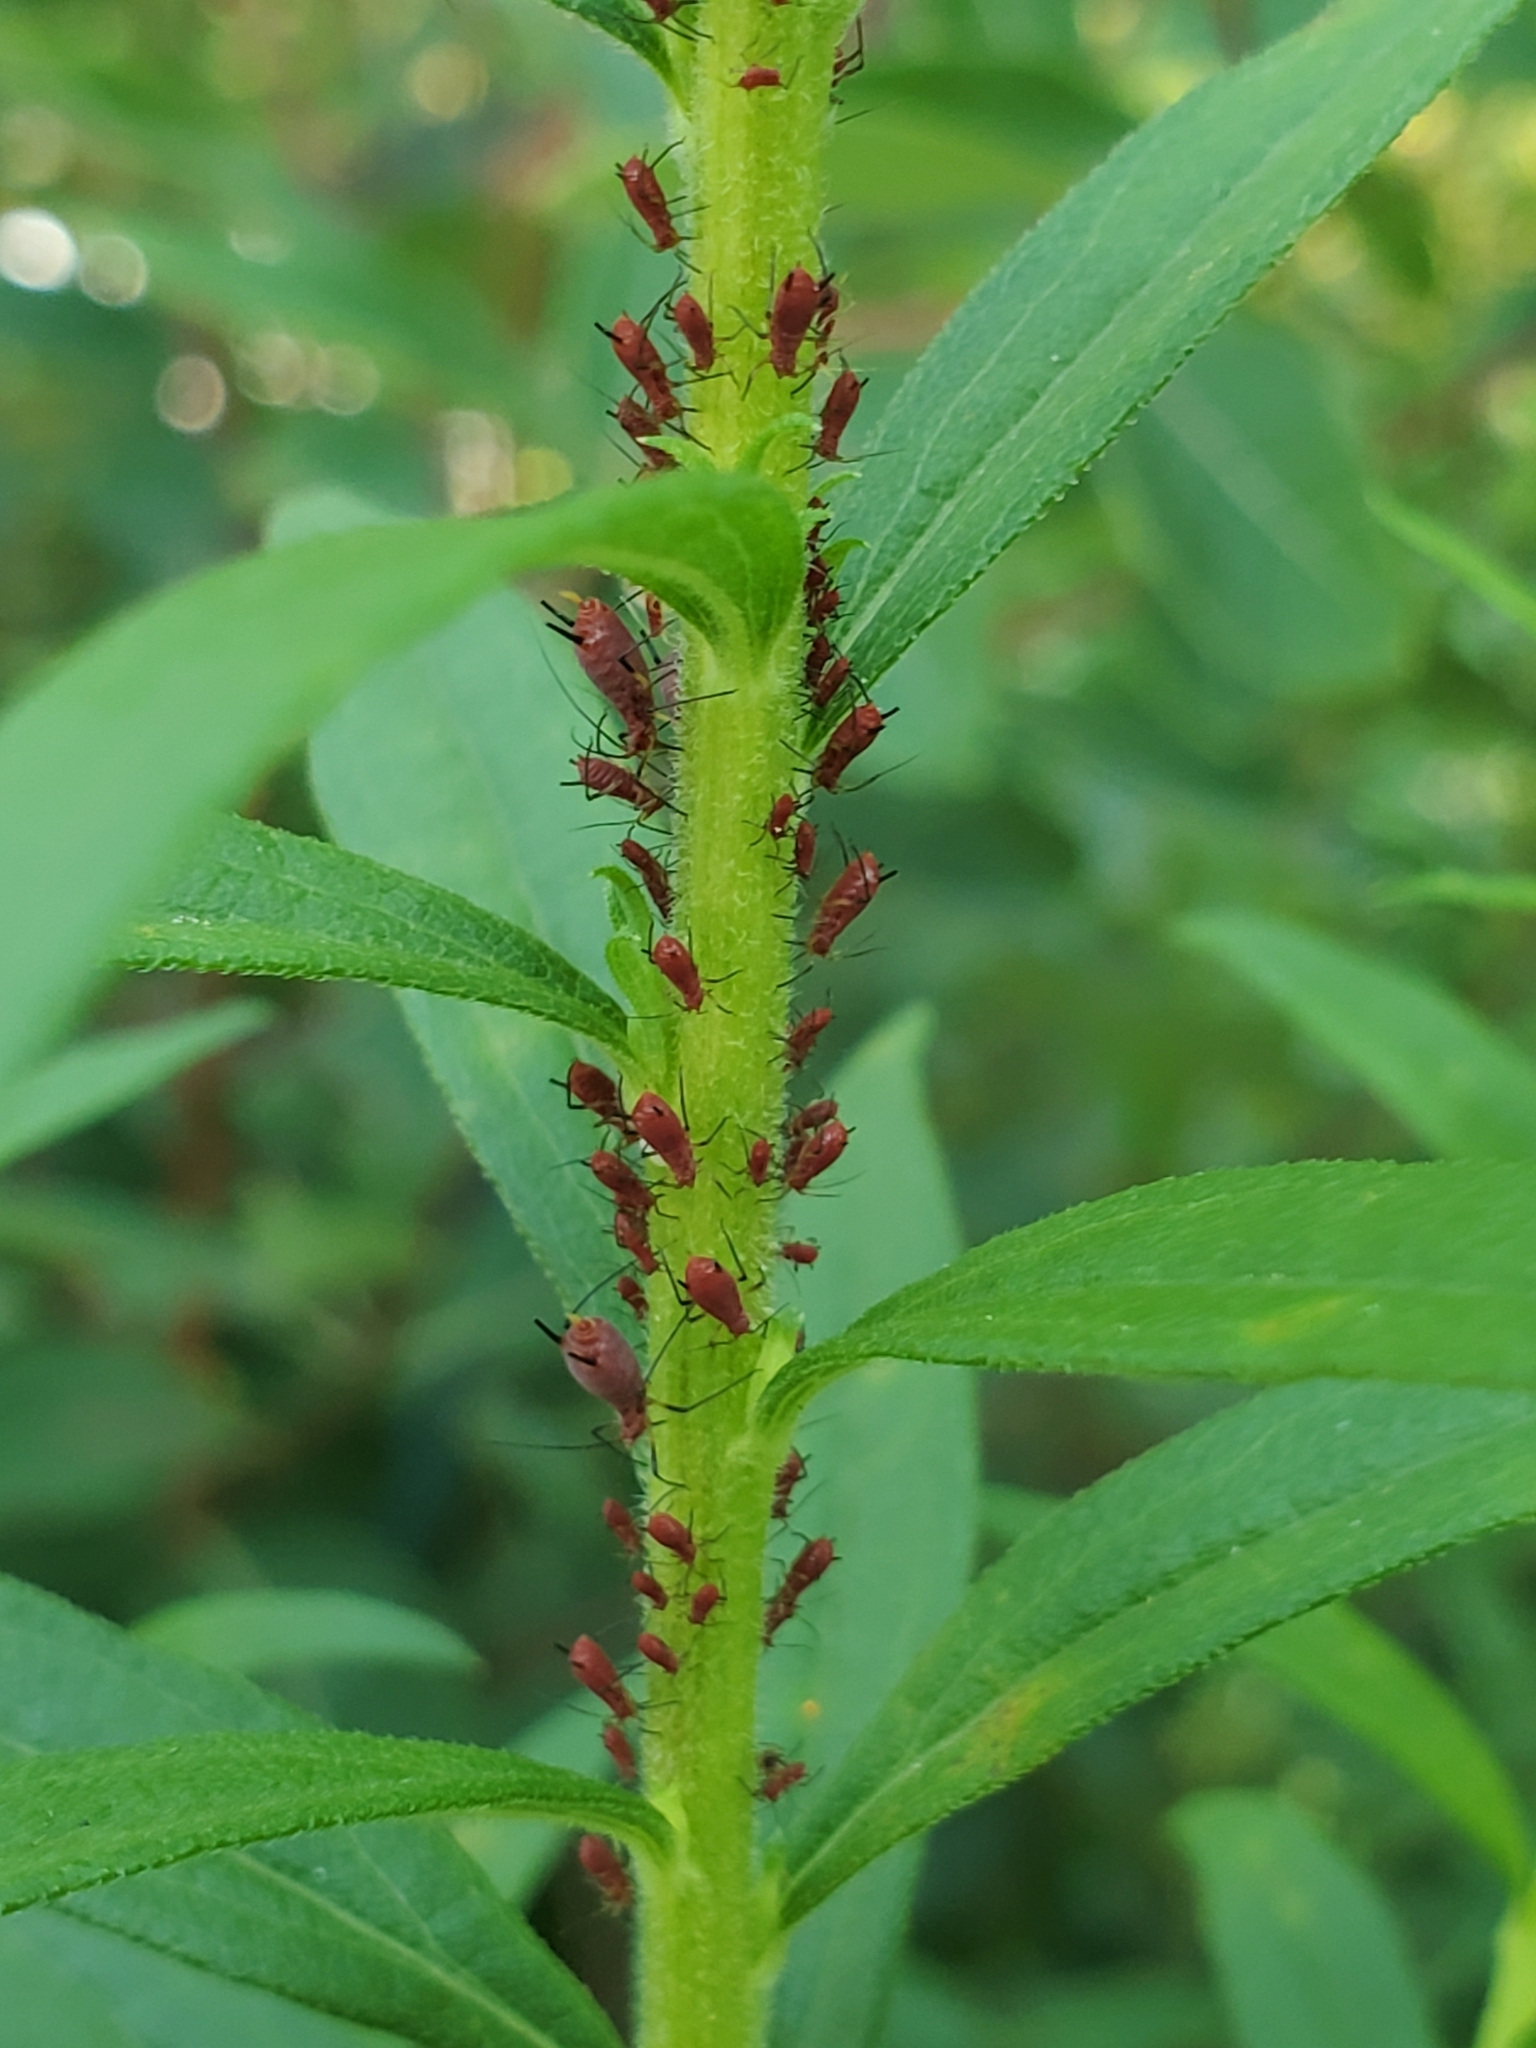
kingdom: Animalia
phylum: Arthropoda
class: Insecta
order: Hemiptera
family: Aphididae
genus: Uroleucon
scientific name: Uroleucon
